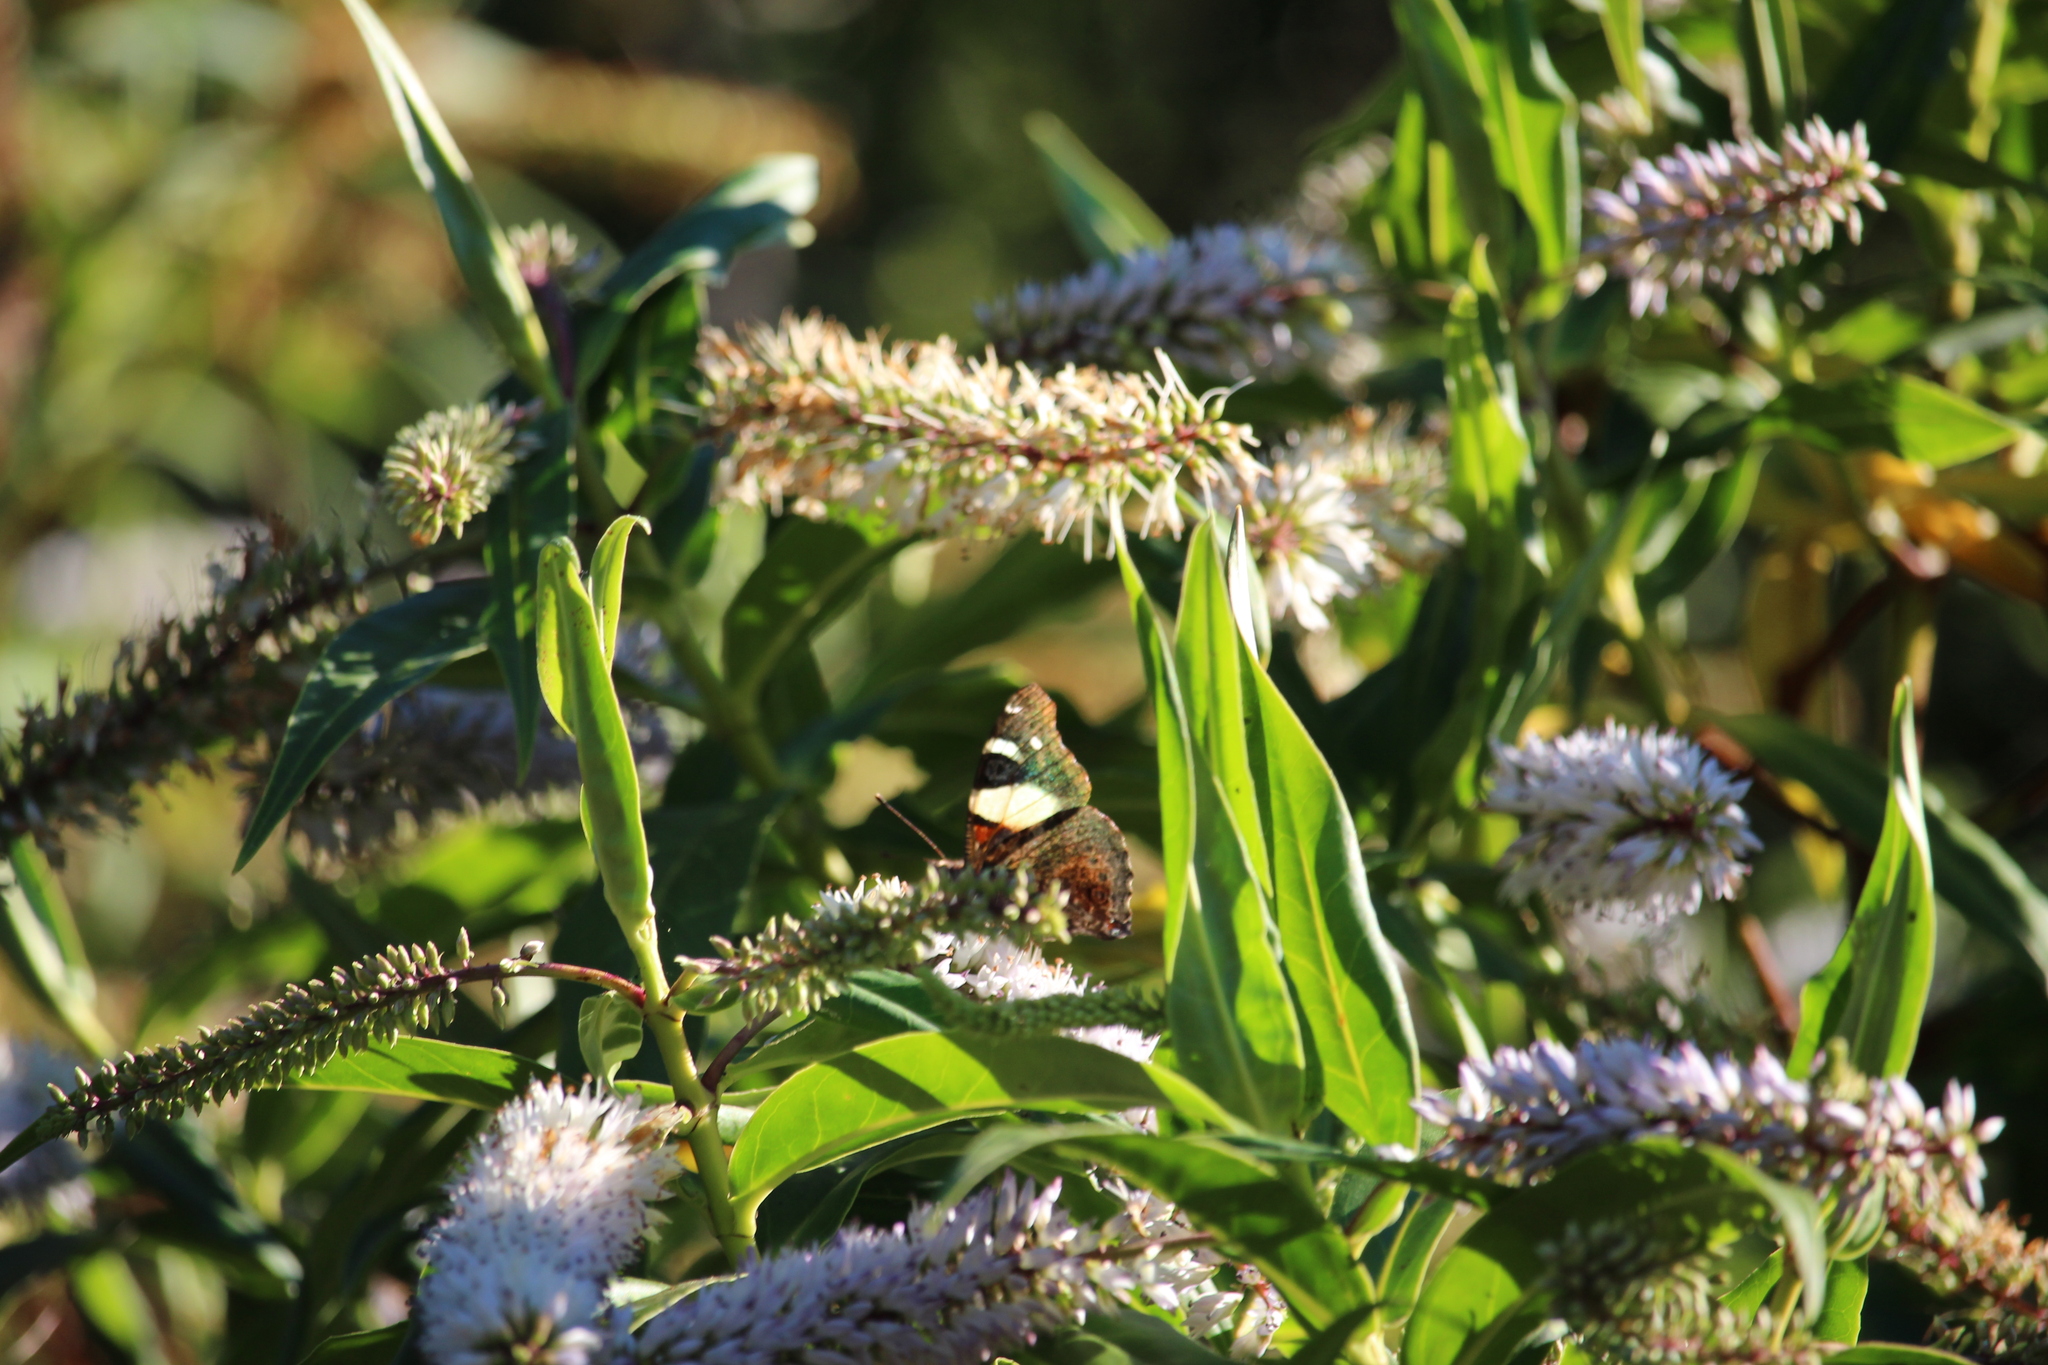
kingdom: Animalia
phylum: Arthropoda
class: Insecta
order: Lepidoptera
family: Nymphalidae
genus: Vanessa
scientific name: Vanessa itea
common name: Yellow admiral
